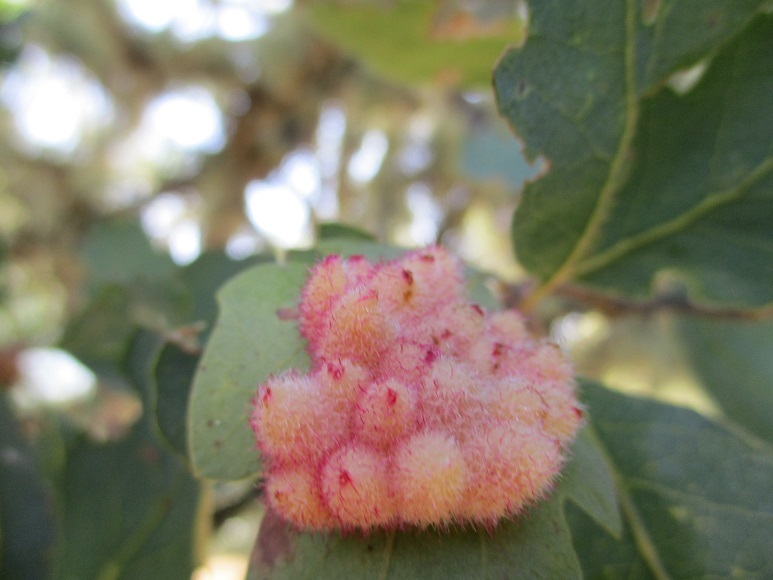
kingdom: Animalia
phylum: Arthropoda
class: Insecta
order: Hymenoptera
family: Cynipidae
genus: Andricus
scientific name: Andricus
